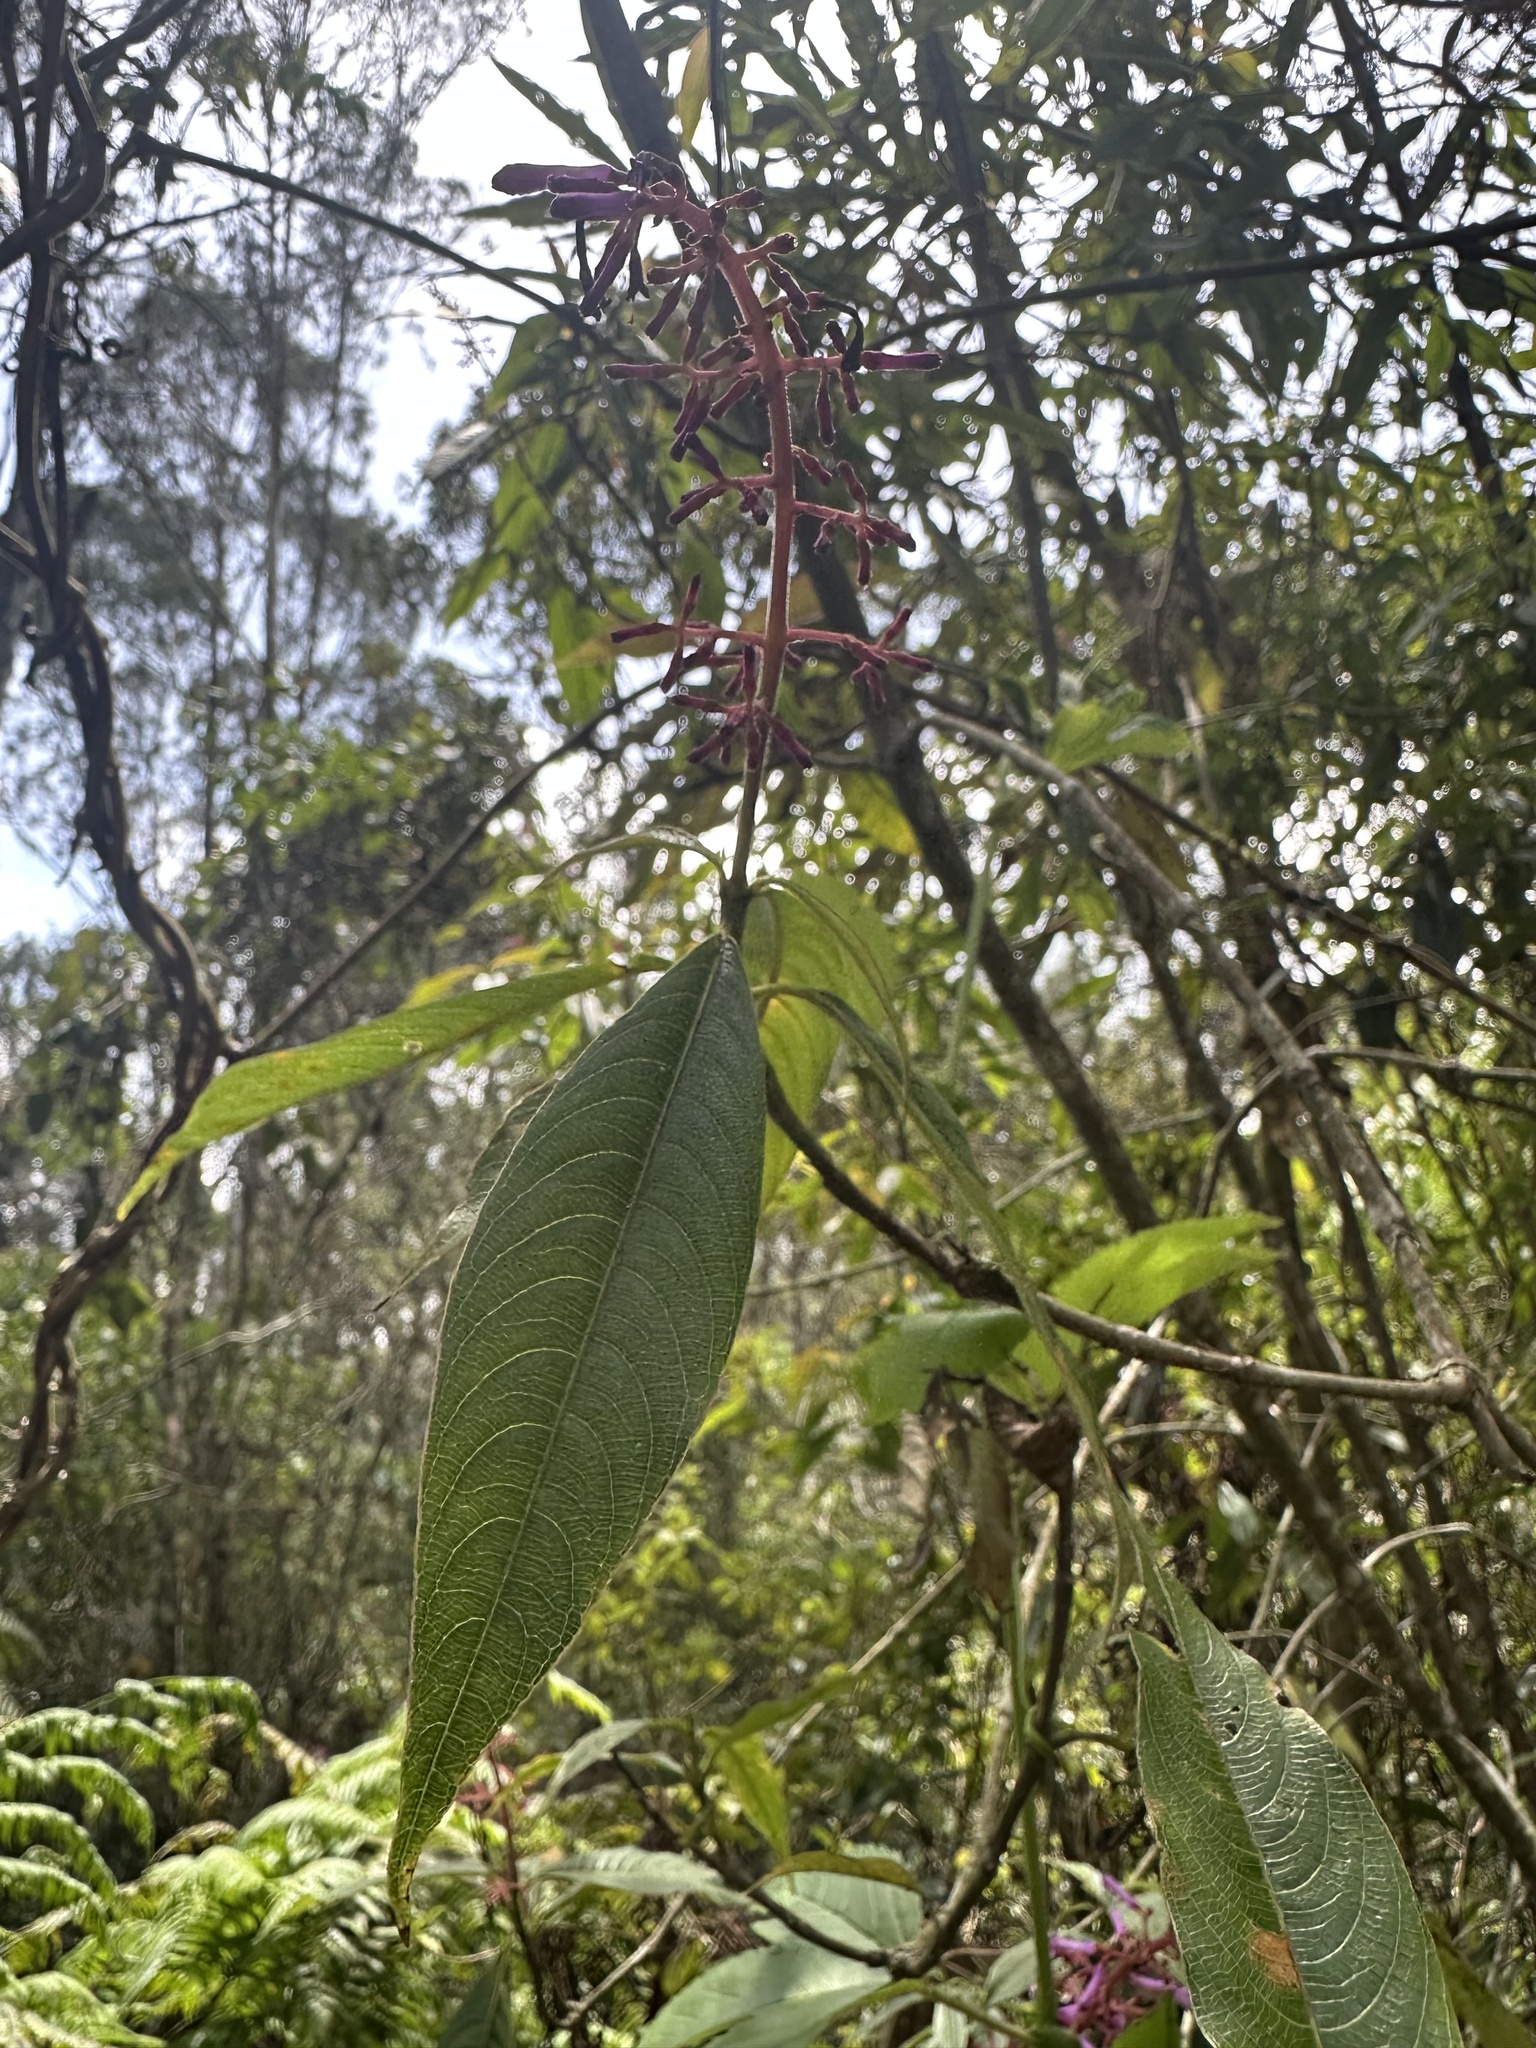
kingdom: Plantae
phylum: Tracheophyta
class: Magnoliopsida
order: Gentianales
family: Rubiaceae
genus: Palicourea
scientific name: Palicourea angustifolia
